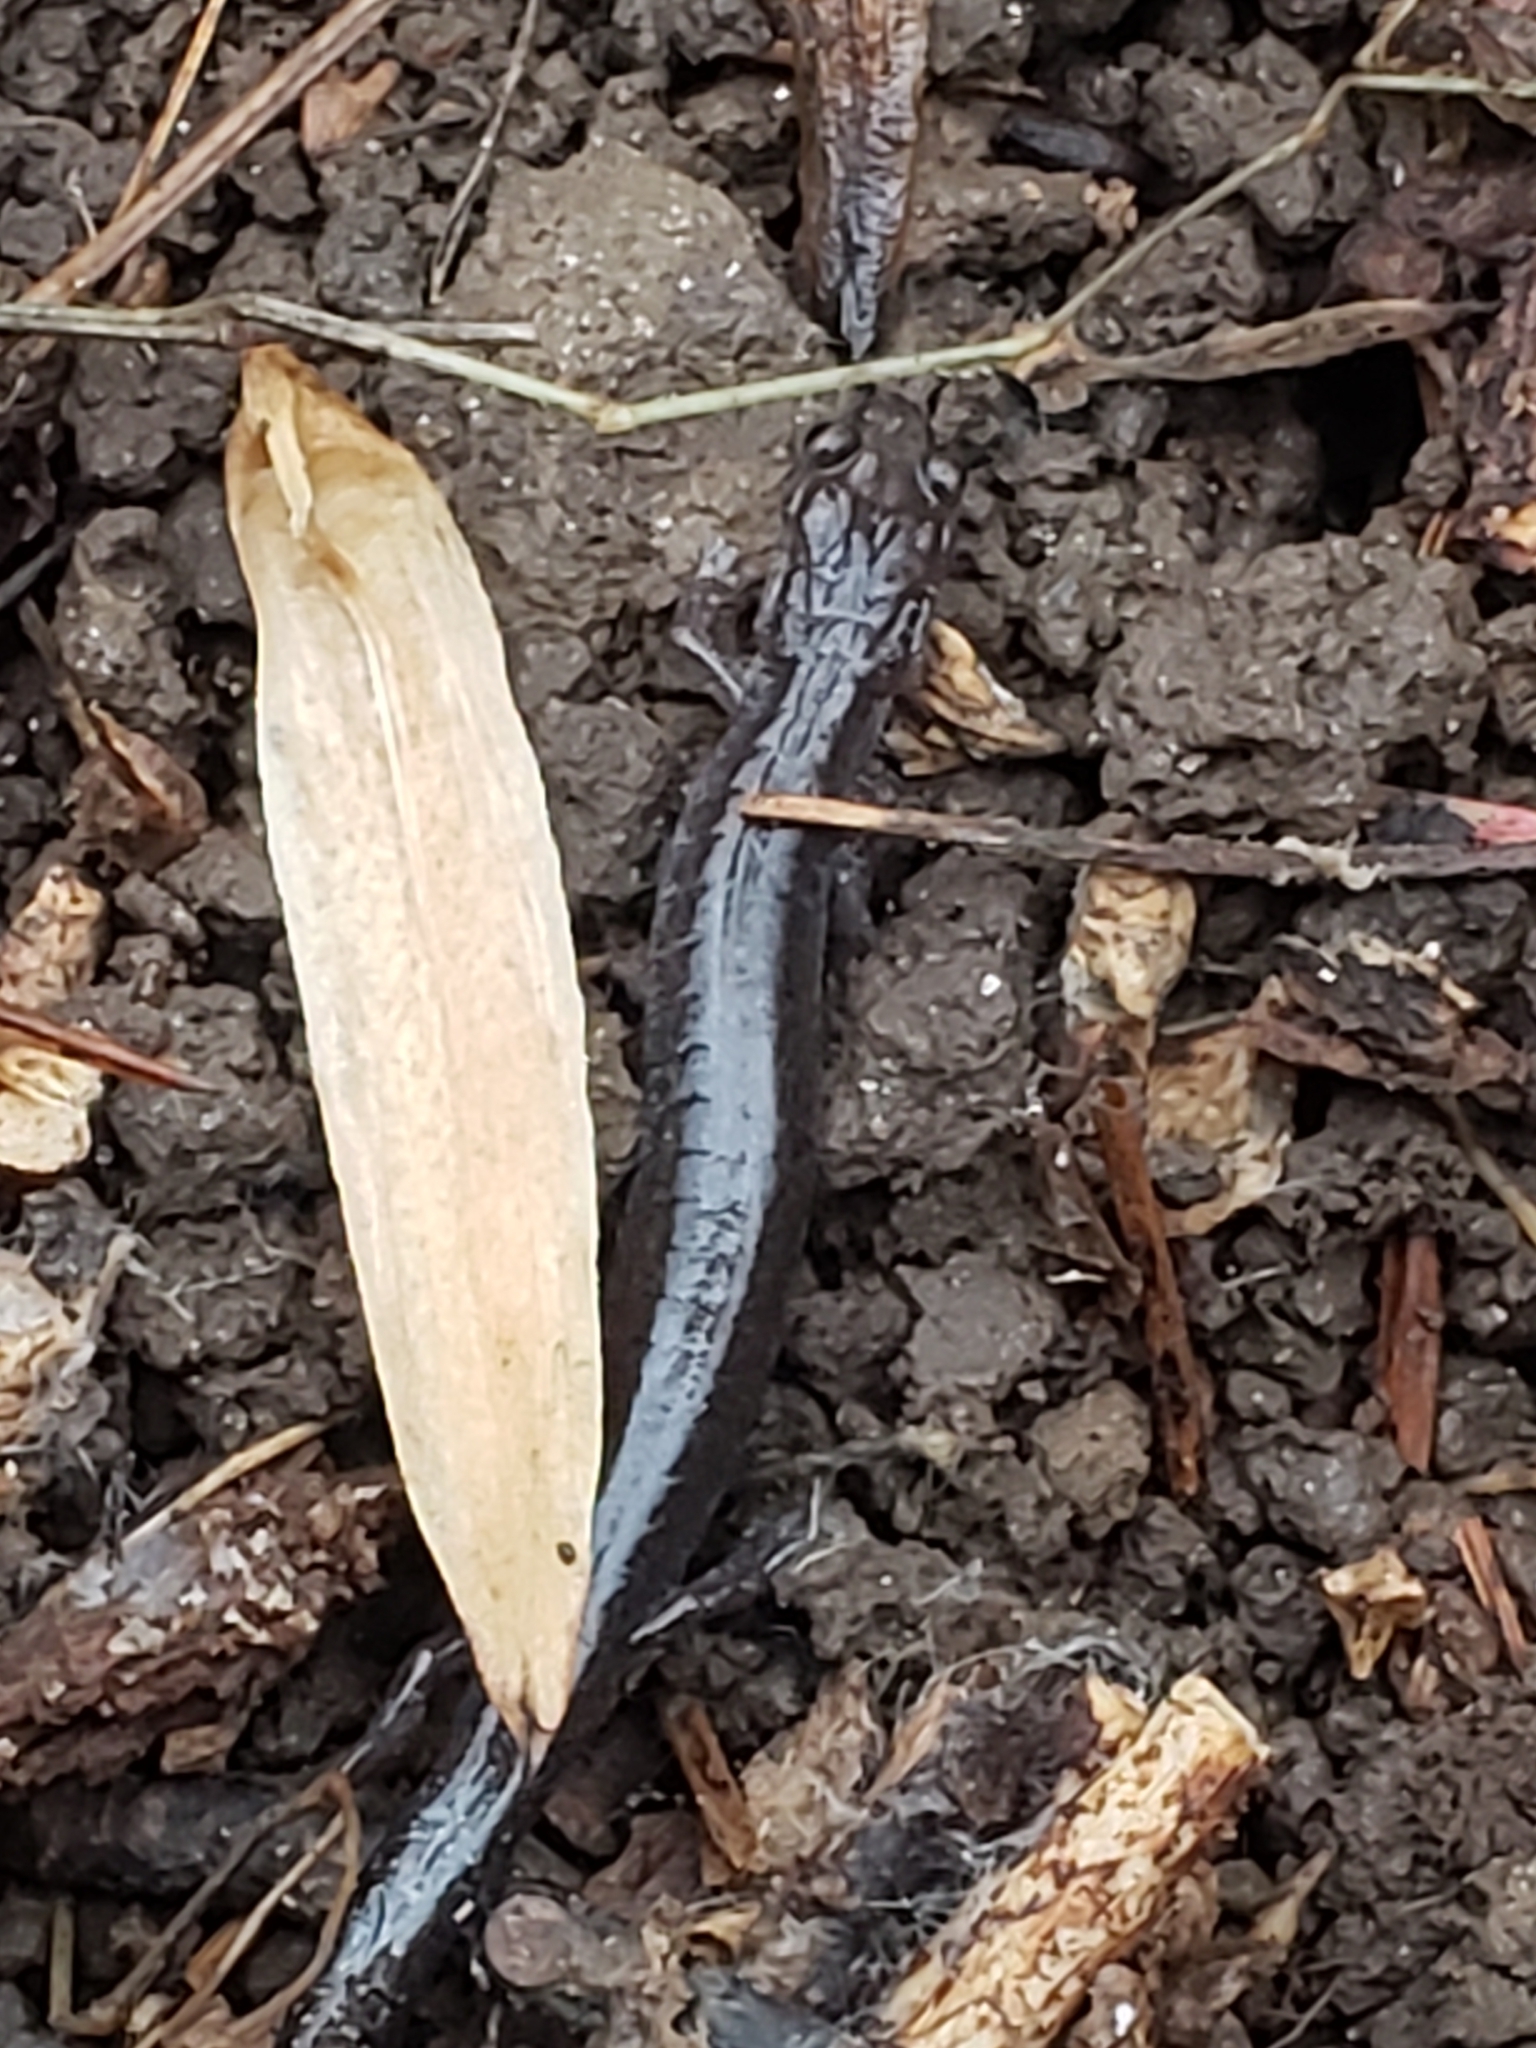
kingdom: Animalia
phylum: Chordata
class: Amphibia
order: Caudata
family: Plethodontidae
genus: Plethodon
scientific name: Plethodon cinereus
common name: Redback salamander
